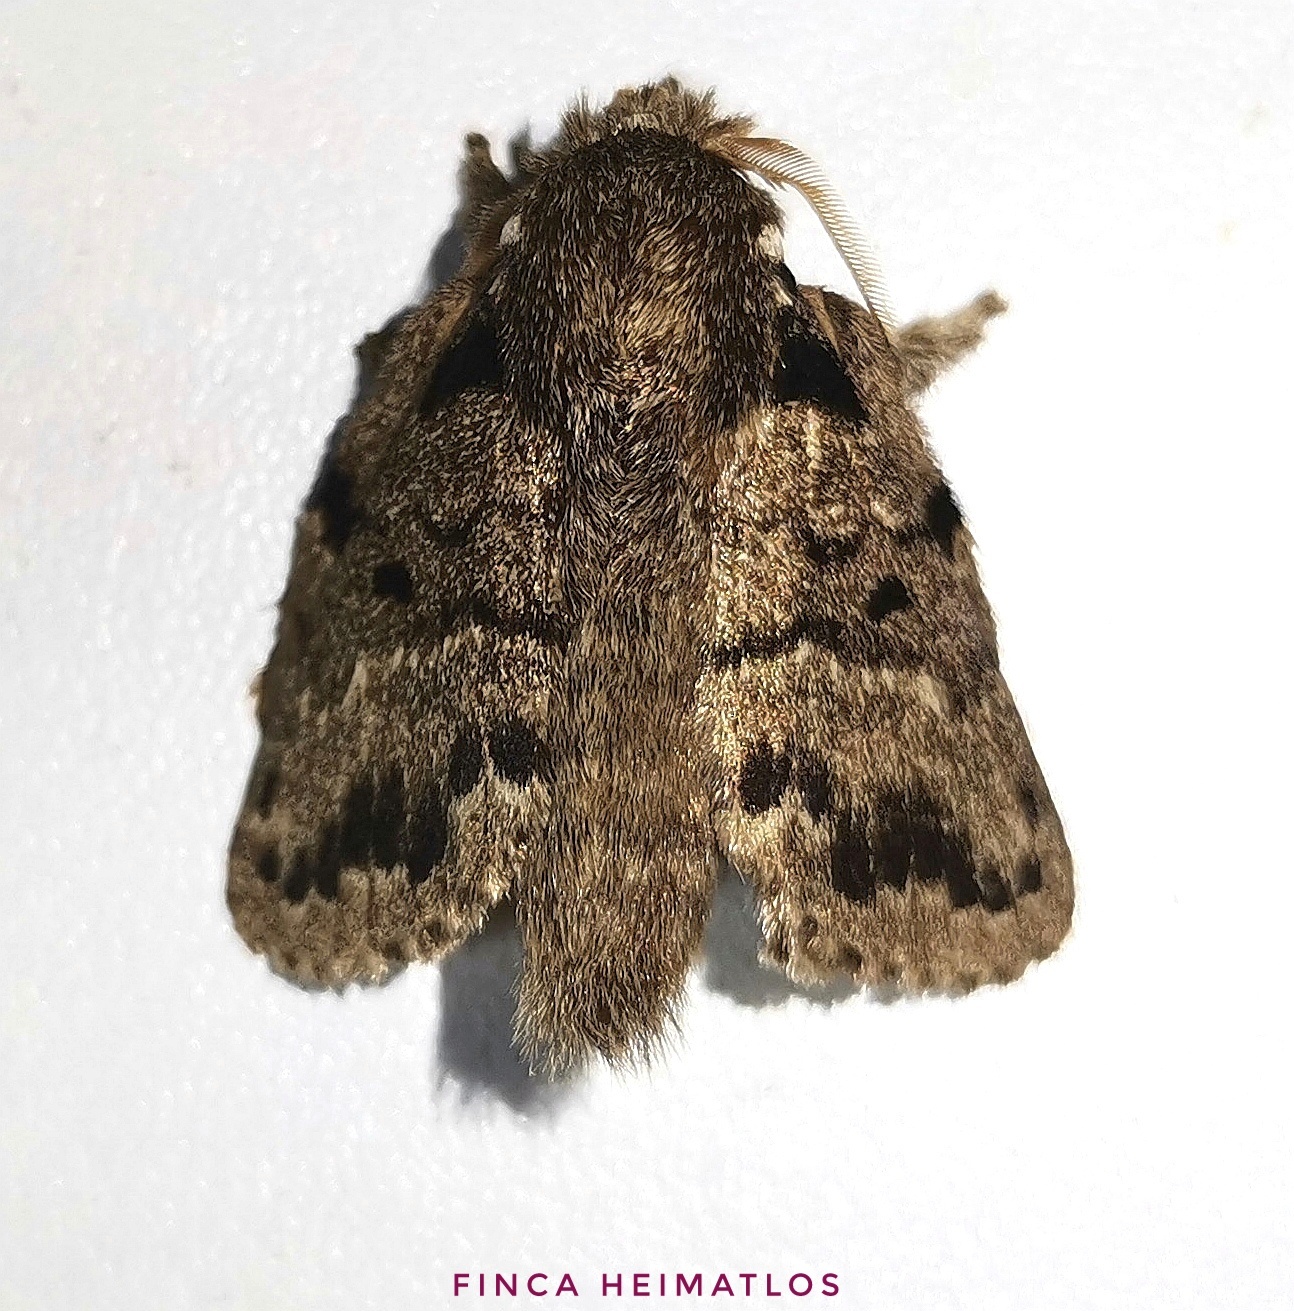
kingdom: Animalia
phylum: Arthropoda
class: Insecta
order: Lepidoptera
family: Lasiocampidae
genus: Euglyphis
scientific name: Euglyphis distincta
